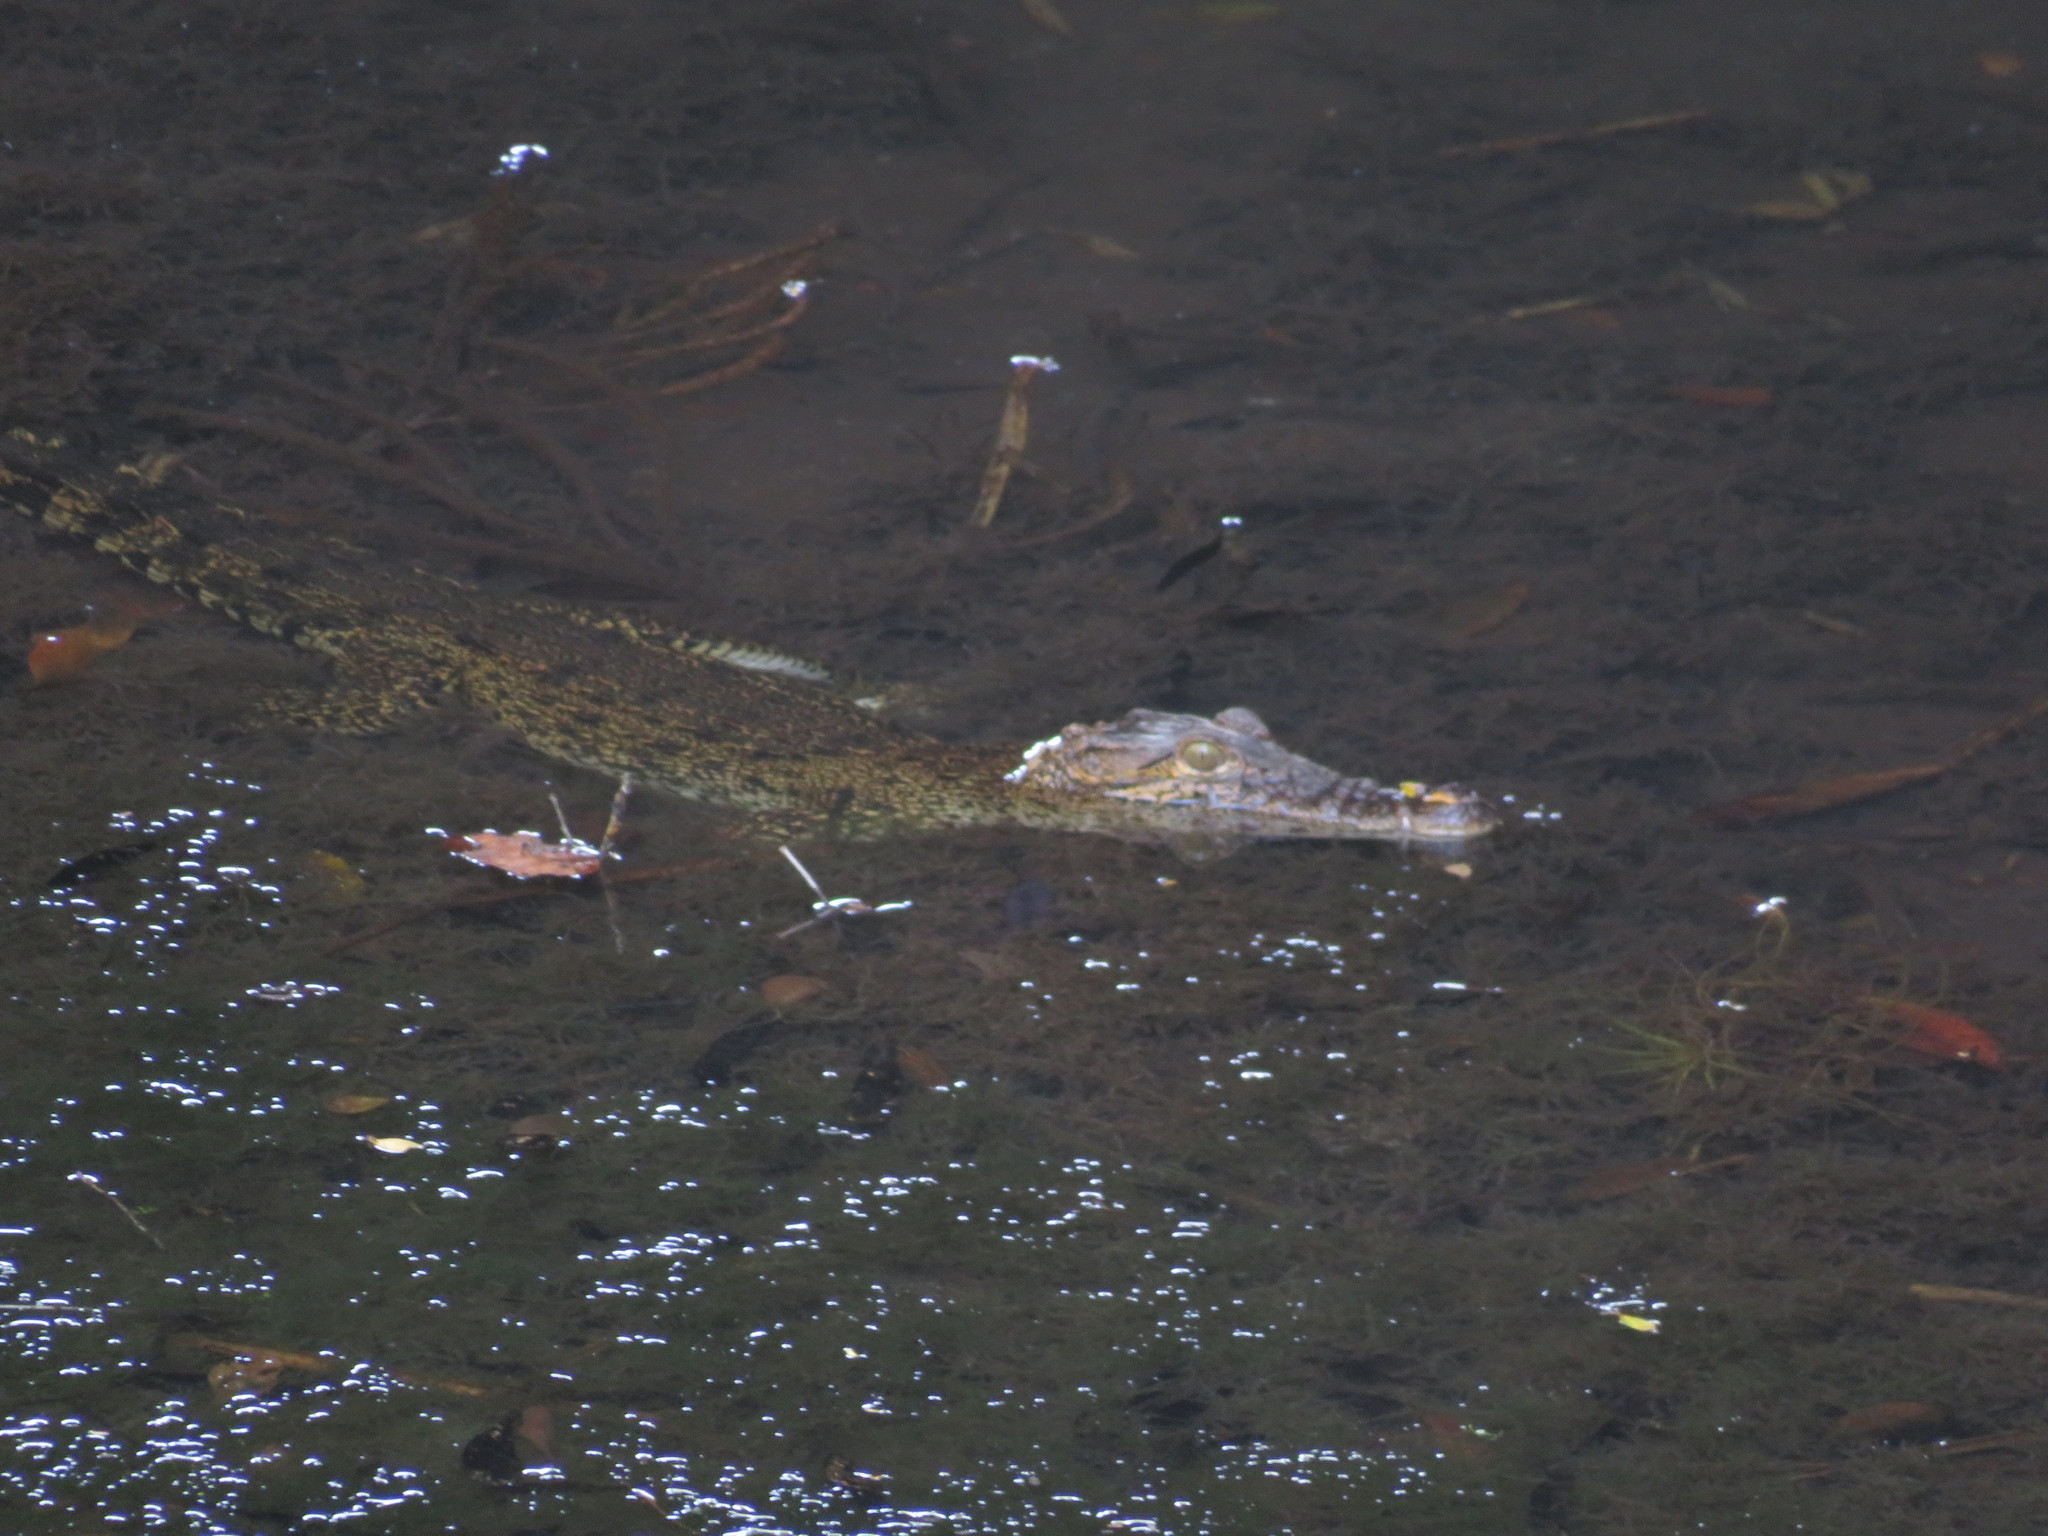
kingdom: Animalia
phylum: Chordata
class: Crocodylia
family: Crocodylidae
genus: Crocodylus
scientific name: Crocodylus rhombifer
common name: Cuban crocodile
